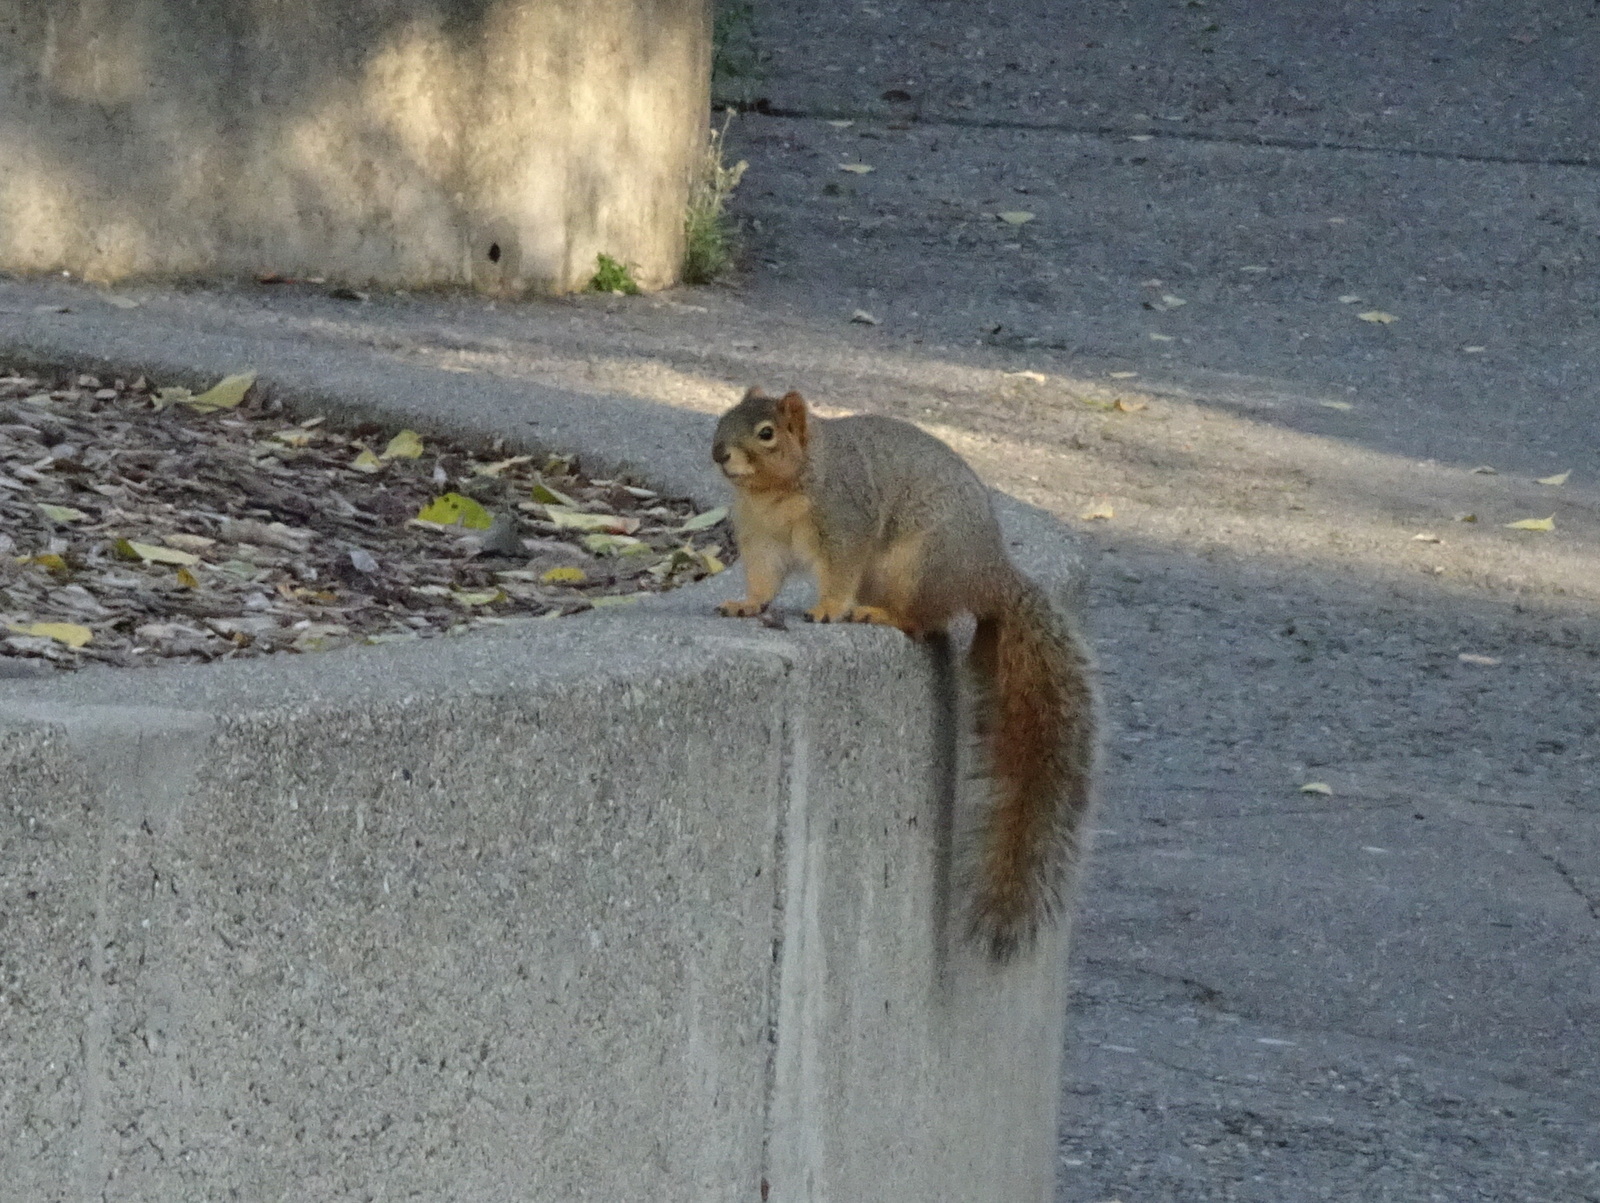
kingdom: Animalia
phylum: Chordata
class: Mammalia
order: Rodentia
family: Sciuridae
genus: Sciurus
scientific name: Sciurus niger
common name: Fox squirrel
